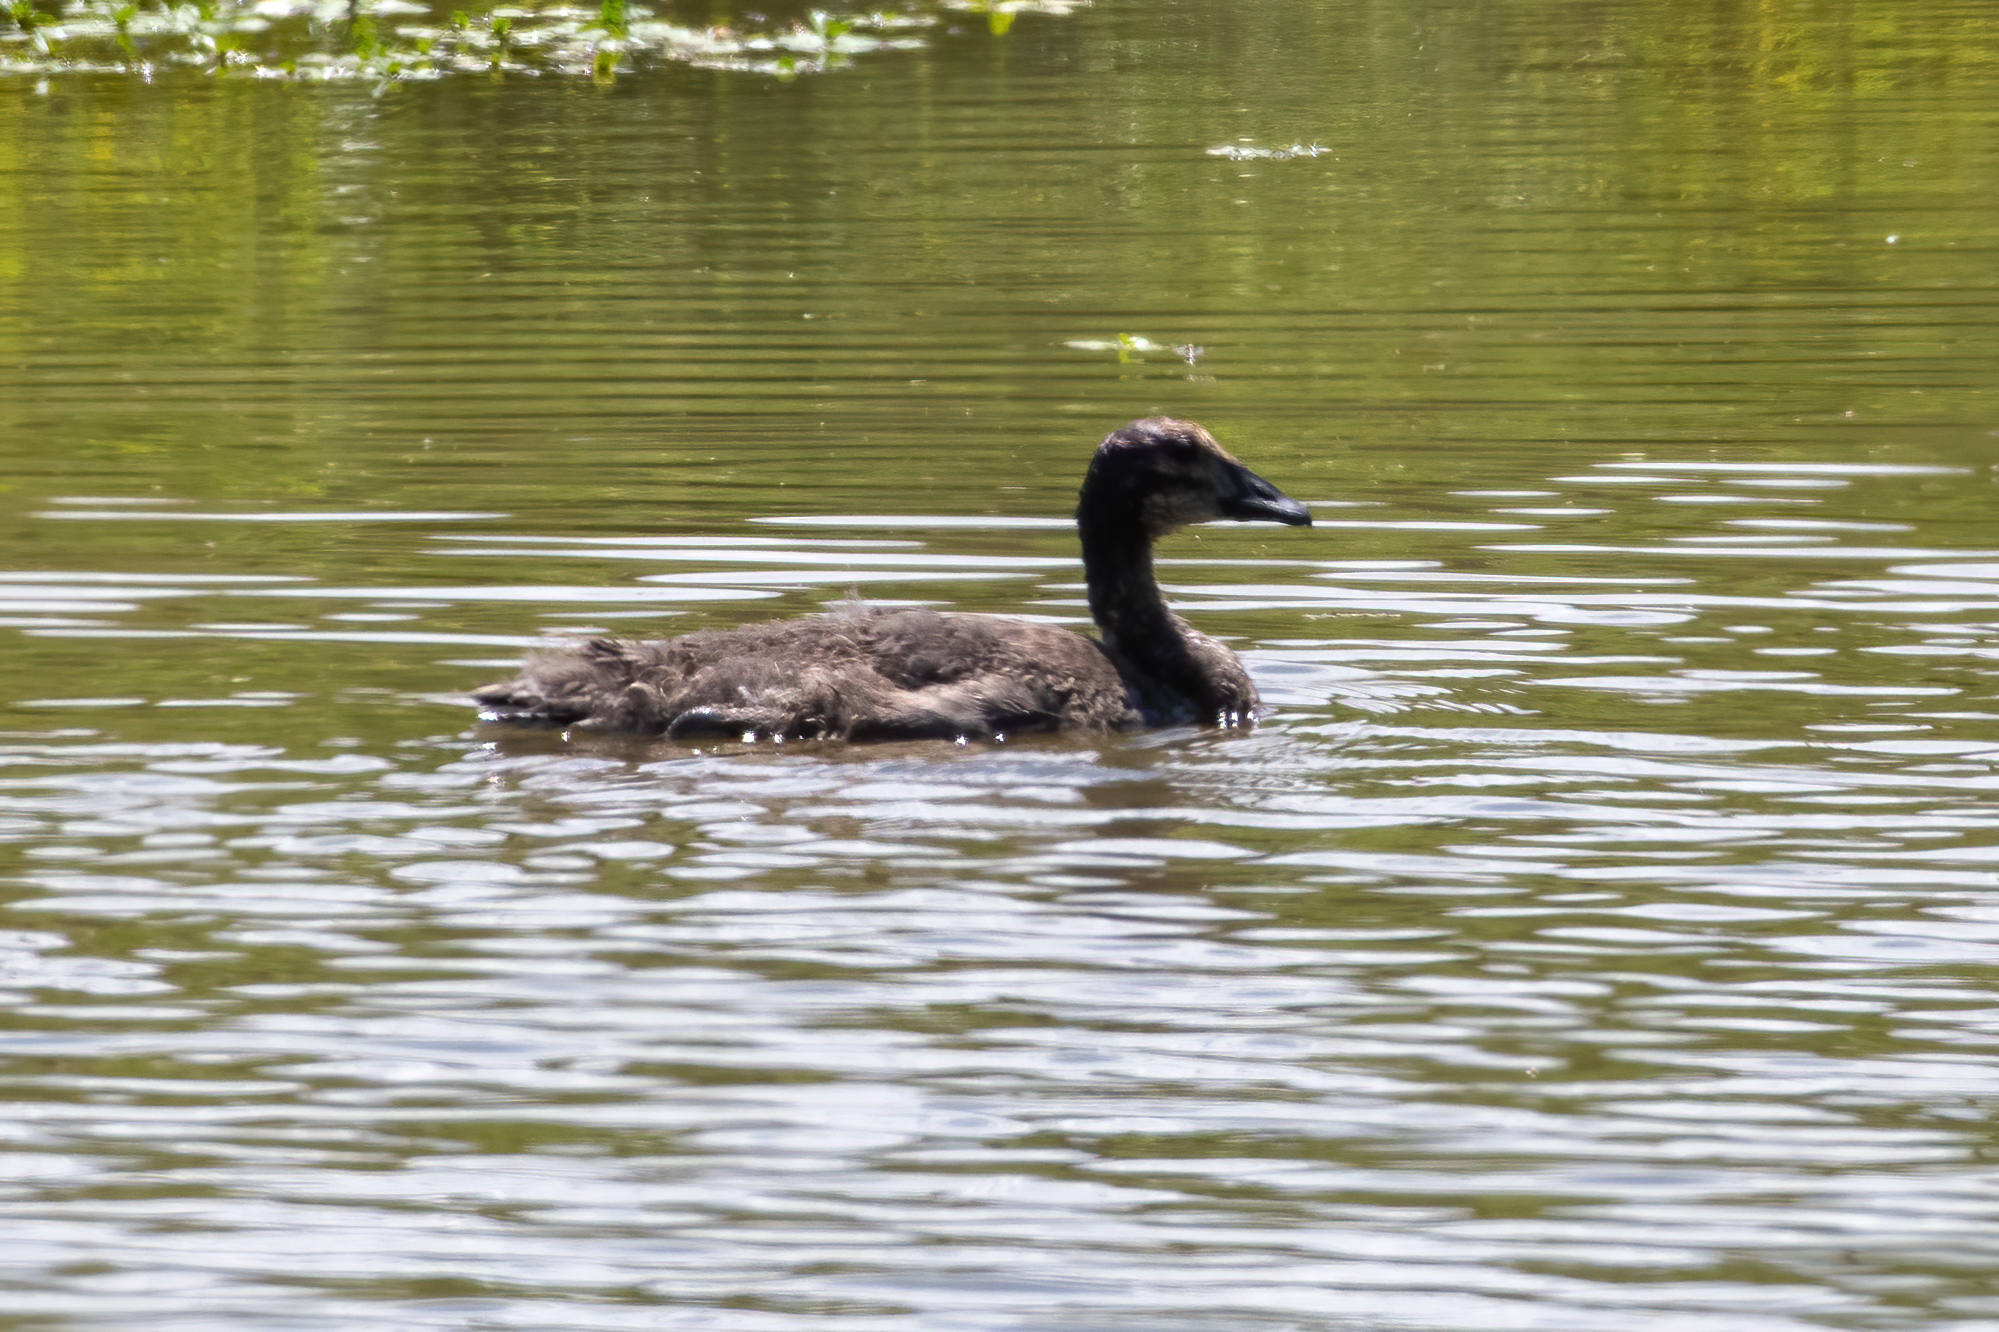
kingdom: Animalia
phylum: Chordata
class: Aves
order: Anseriformes
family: Anatidae
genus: Branta
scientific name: Branta canadensis
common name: Canada goose
